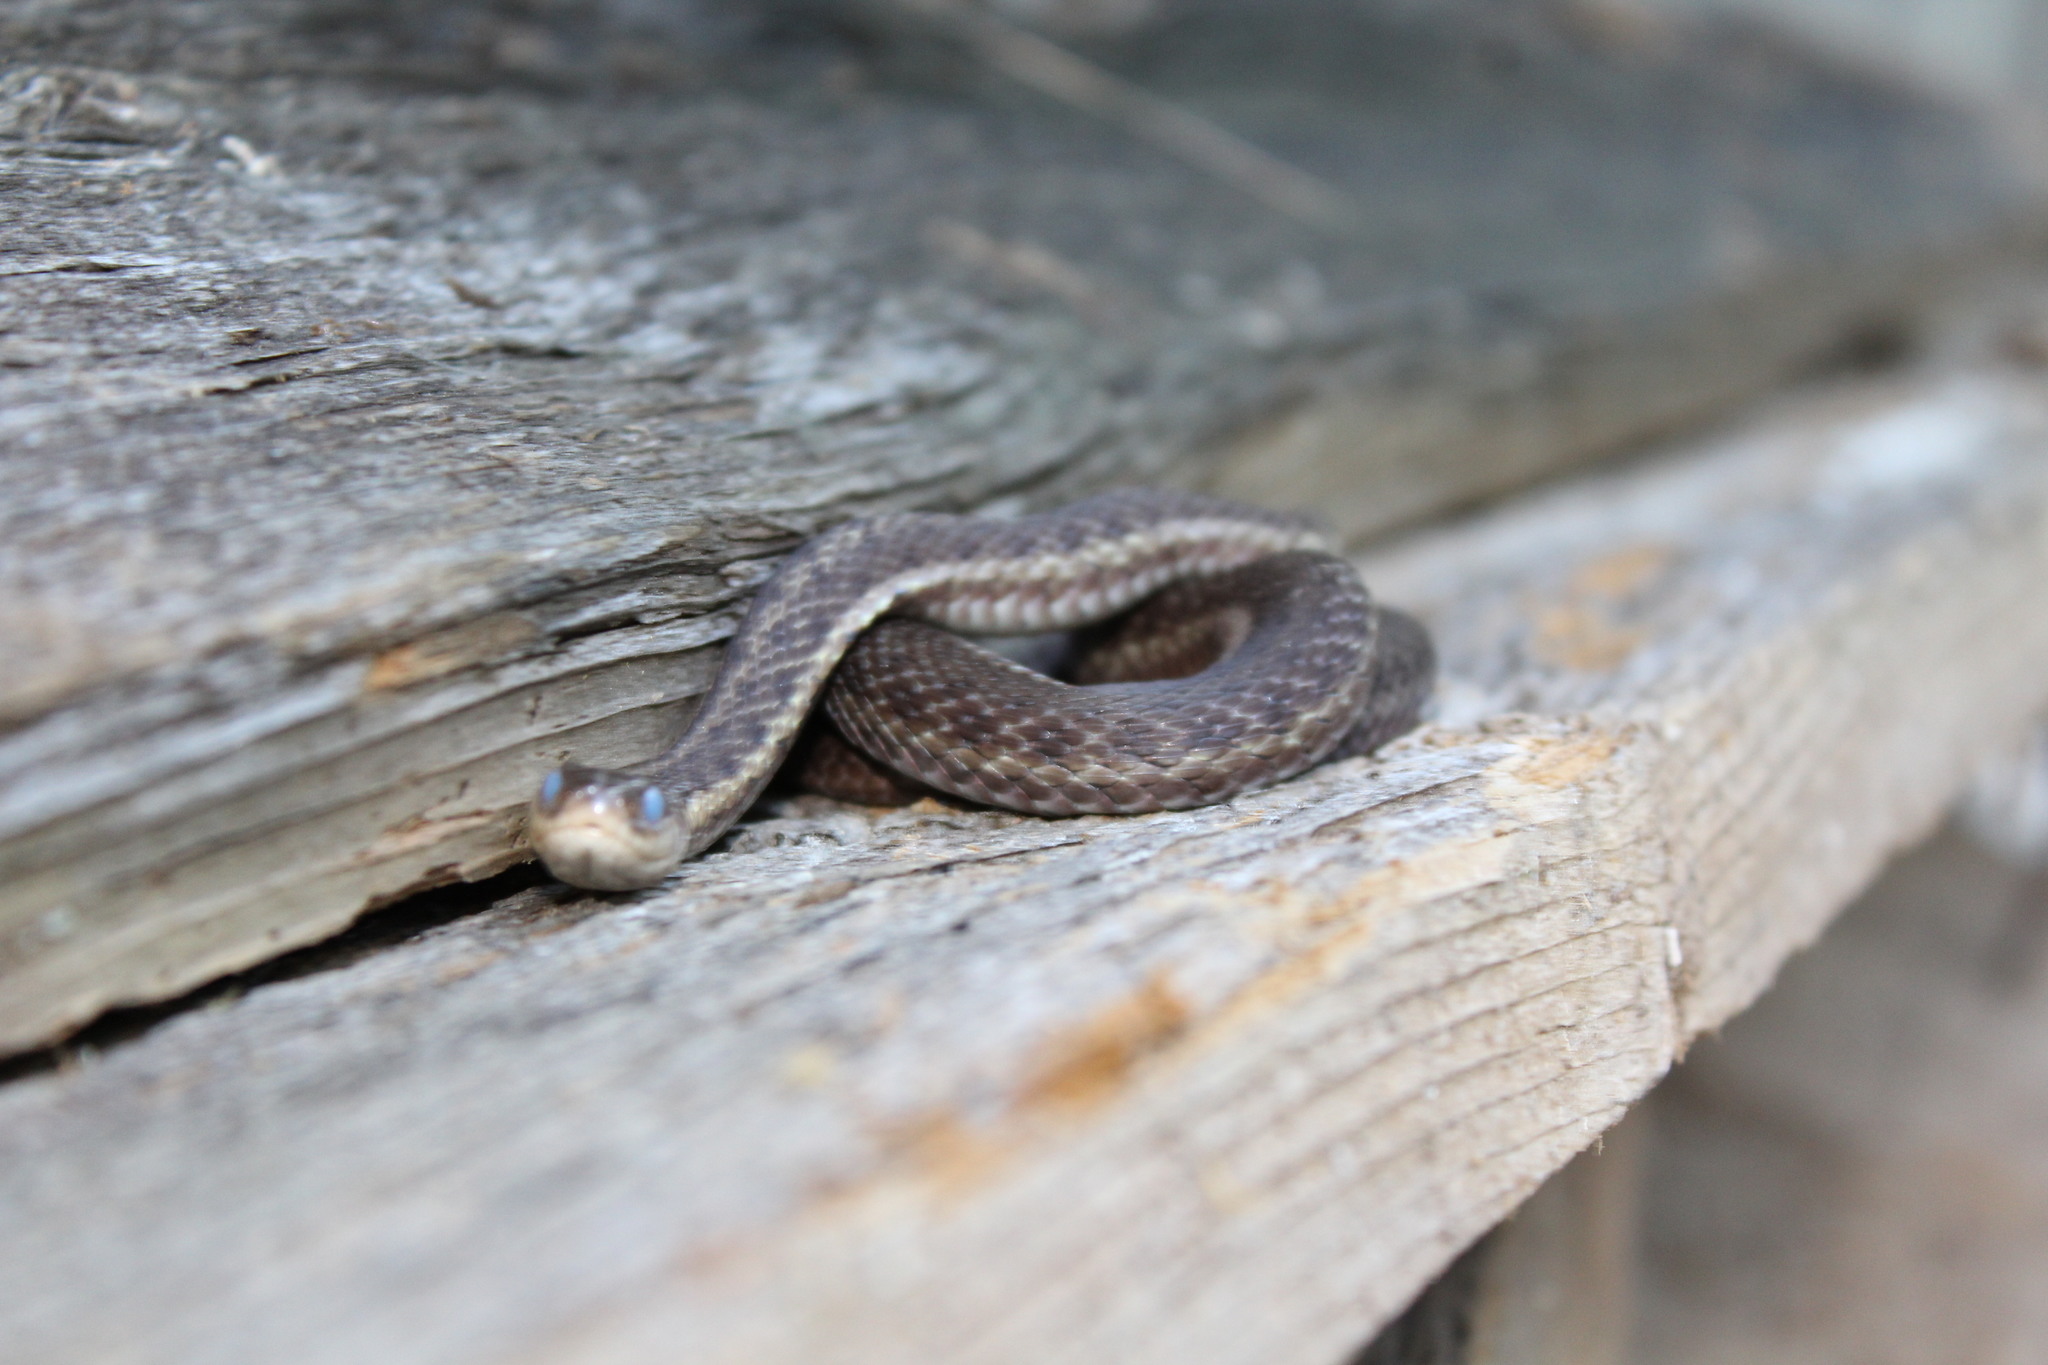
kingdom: Animalia
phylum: Chordata
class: Squamata
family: Colubridae
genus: Thamnophis
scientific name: Thamnophis sirtalis
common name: Common garter snake
